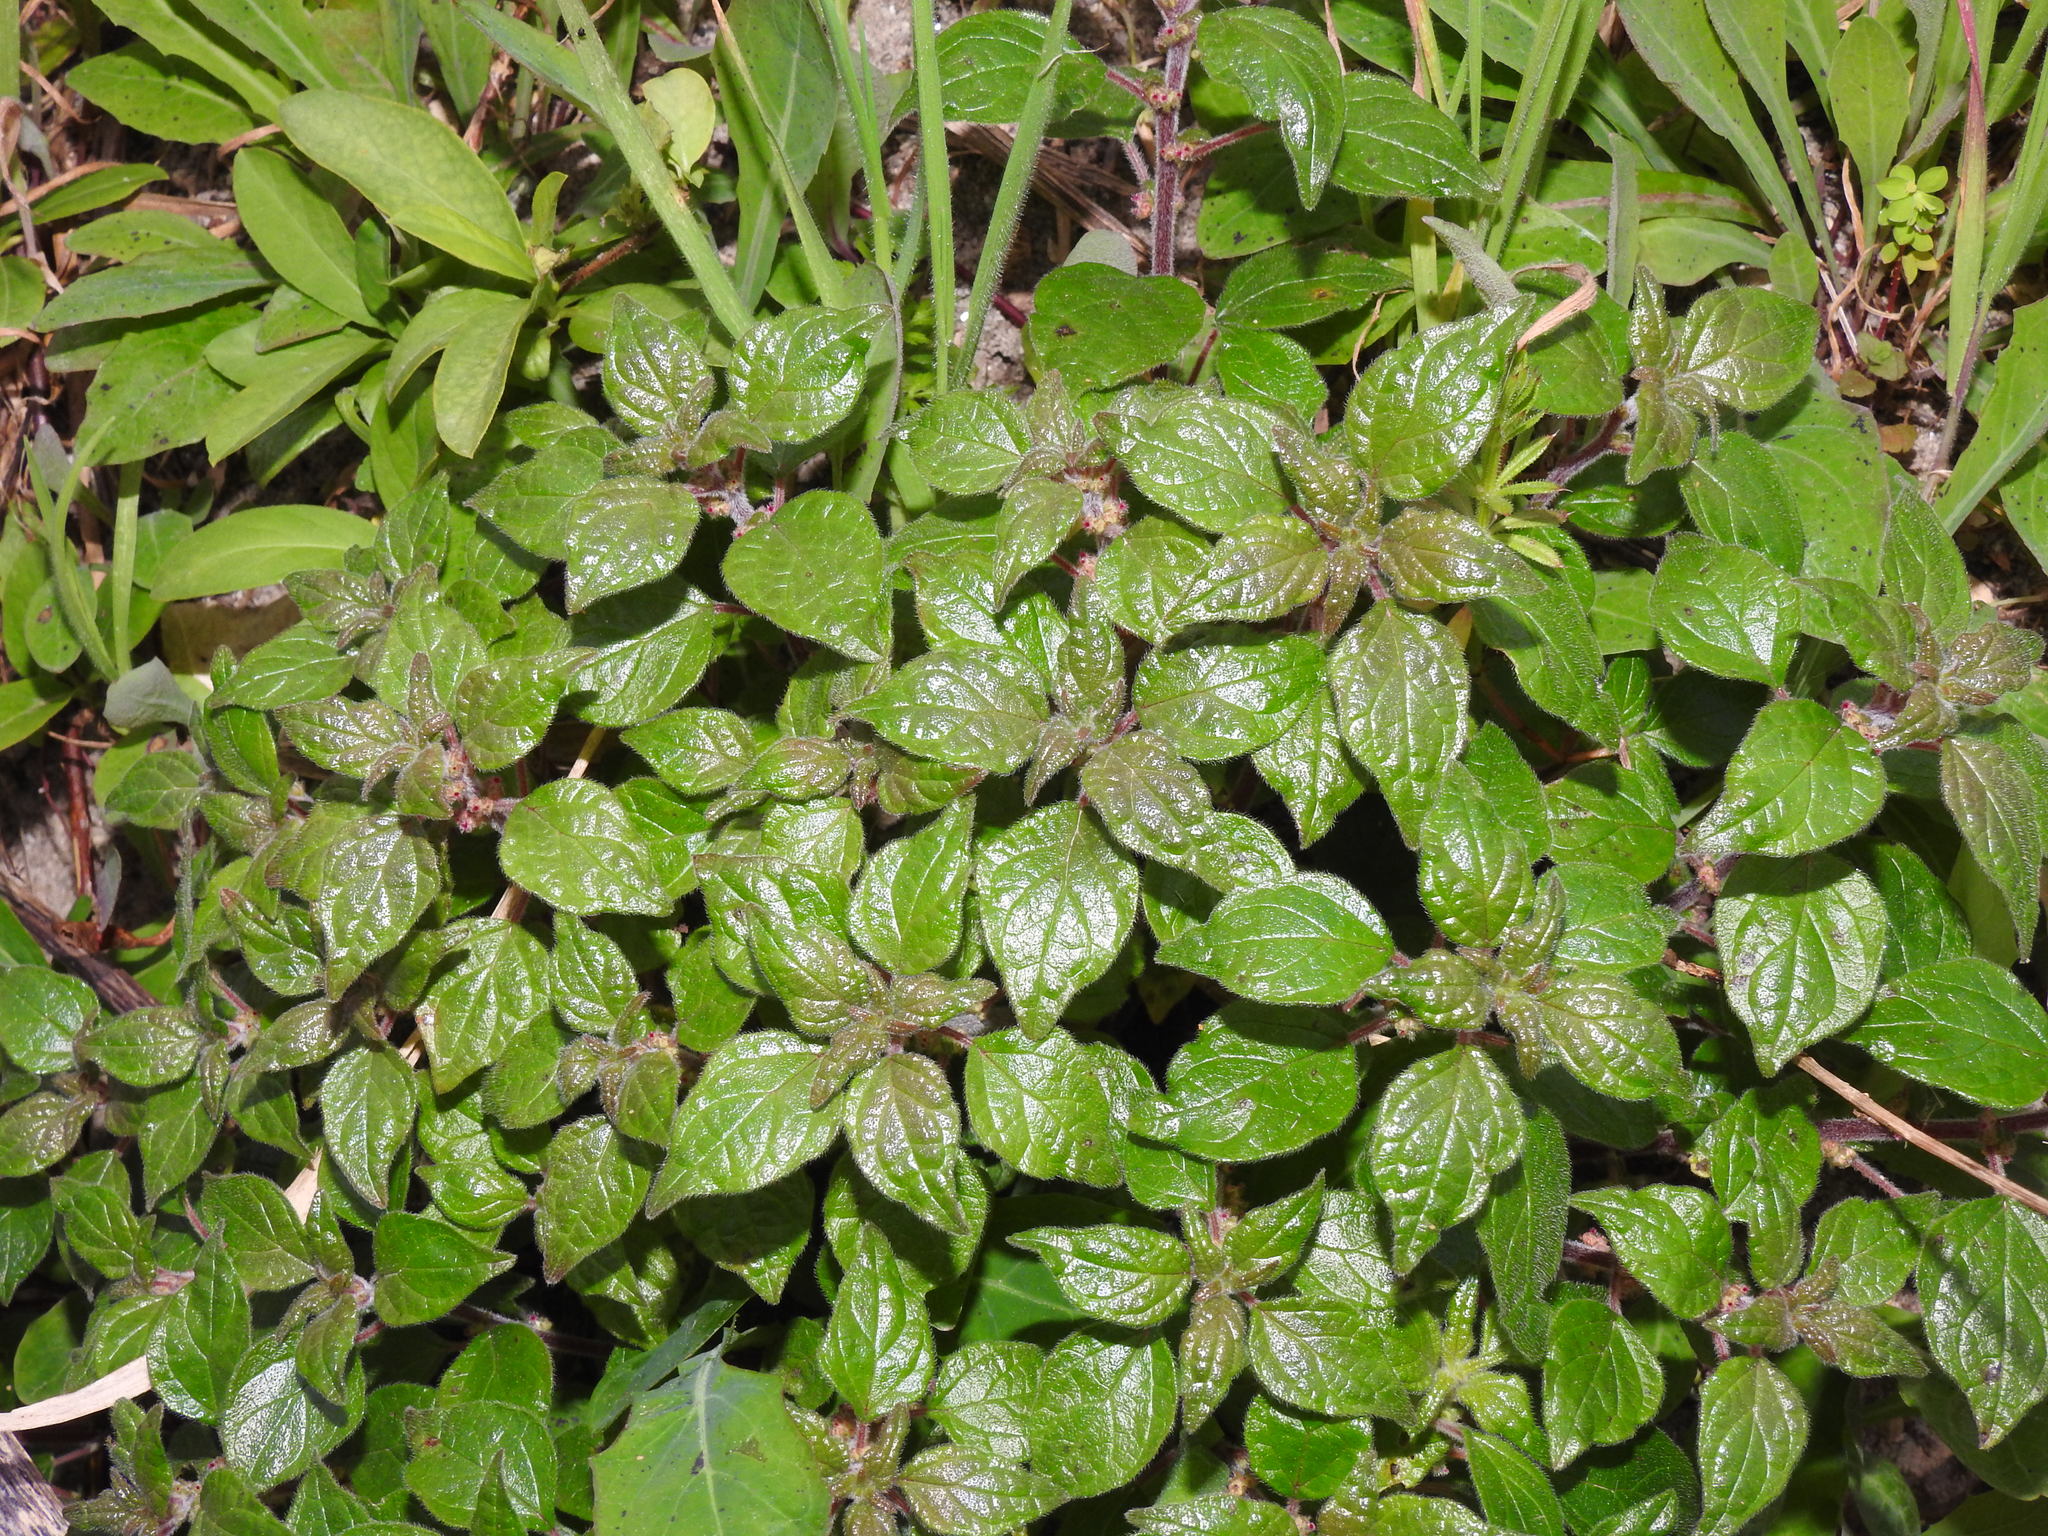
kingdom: Plantae
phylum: Tracheophyta
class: Magnoliopsida
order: Rosales
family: Urticaceae
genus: Parietaria
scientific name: Parietaria judaica
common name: Pellitory-of-the-wall
